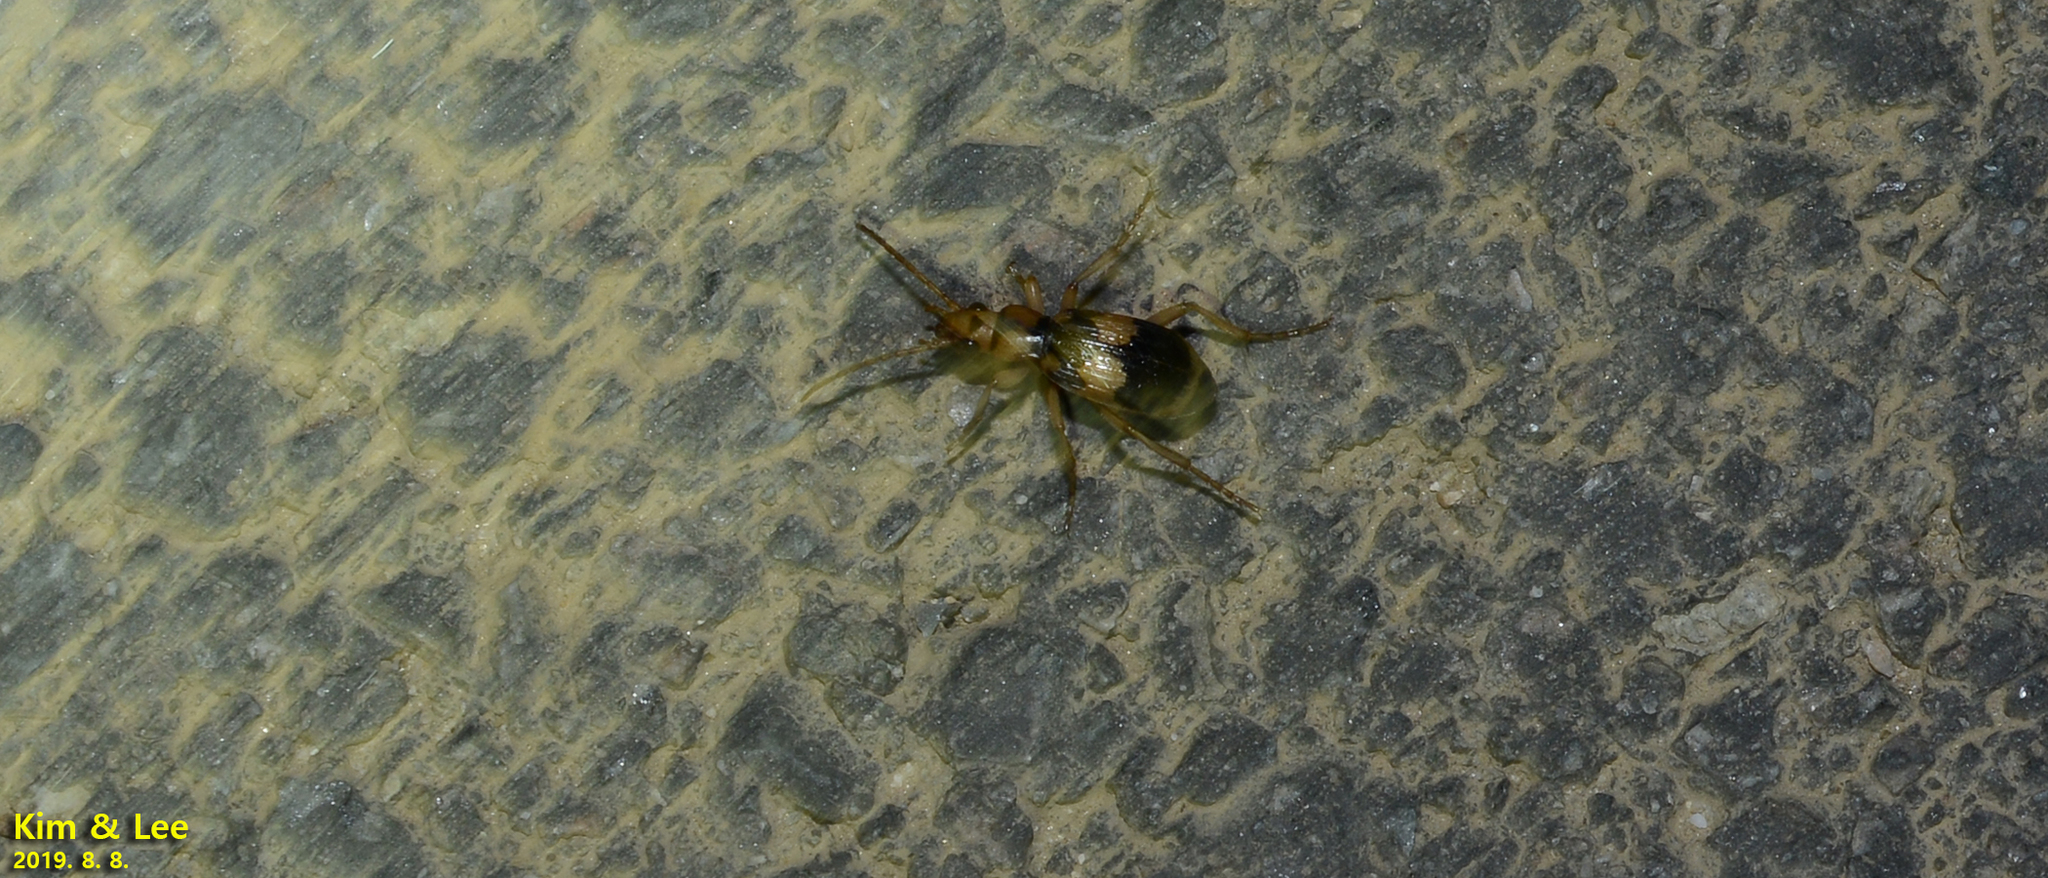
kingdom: Animalia
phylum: Arthropoda
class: Insecta
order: Coleoptera
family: Carabidae
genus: Pheropsophus
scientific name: Pheropsophus jessoensis
